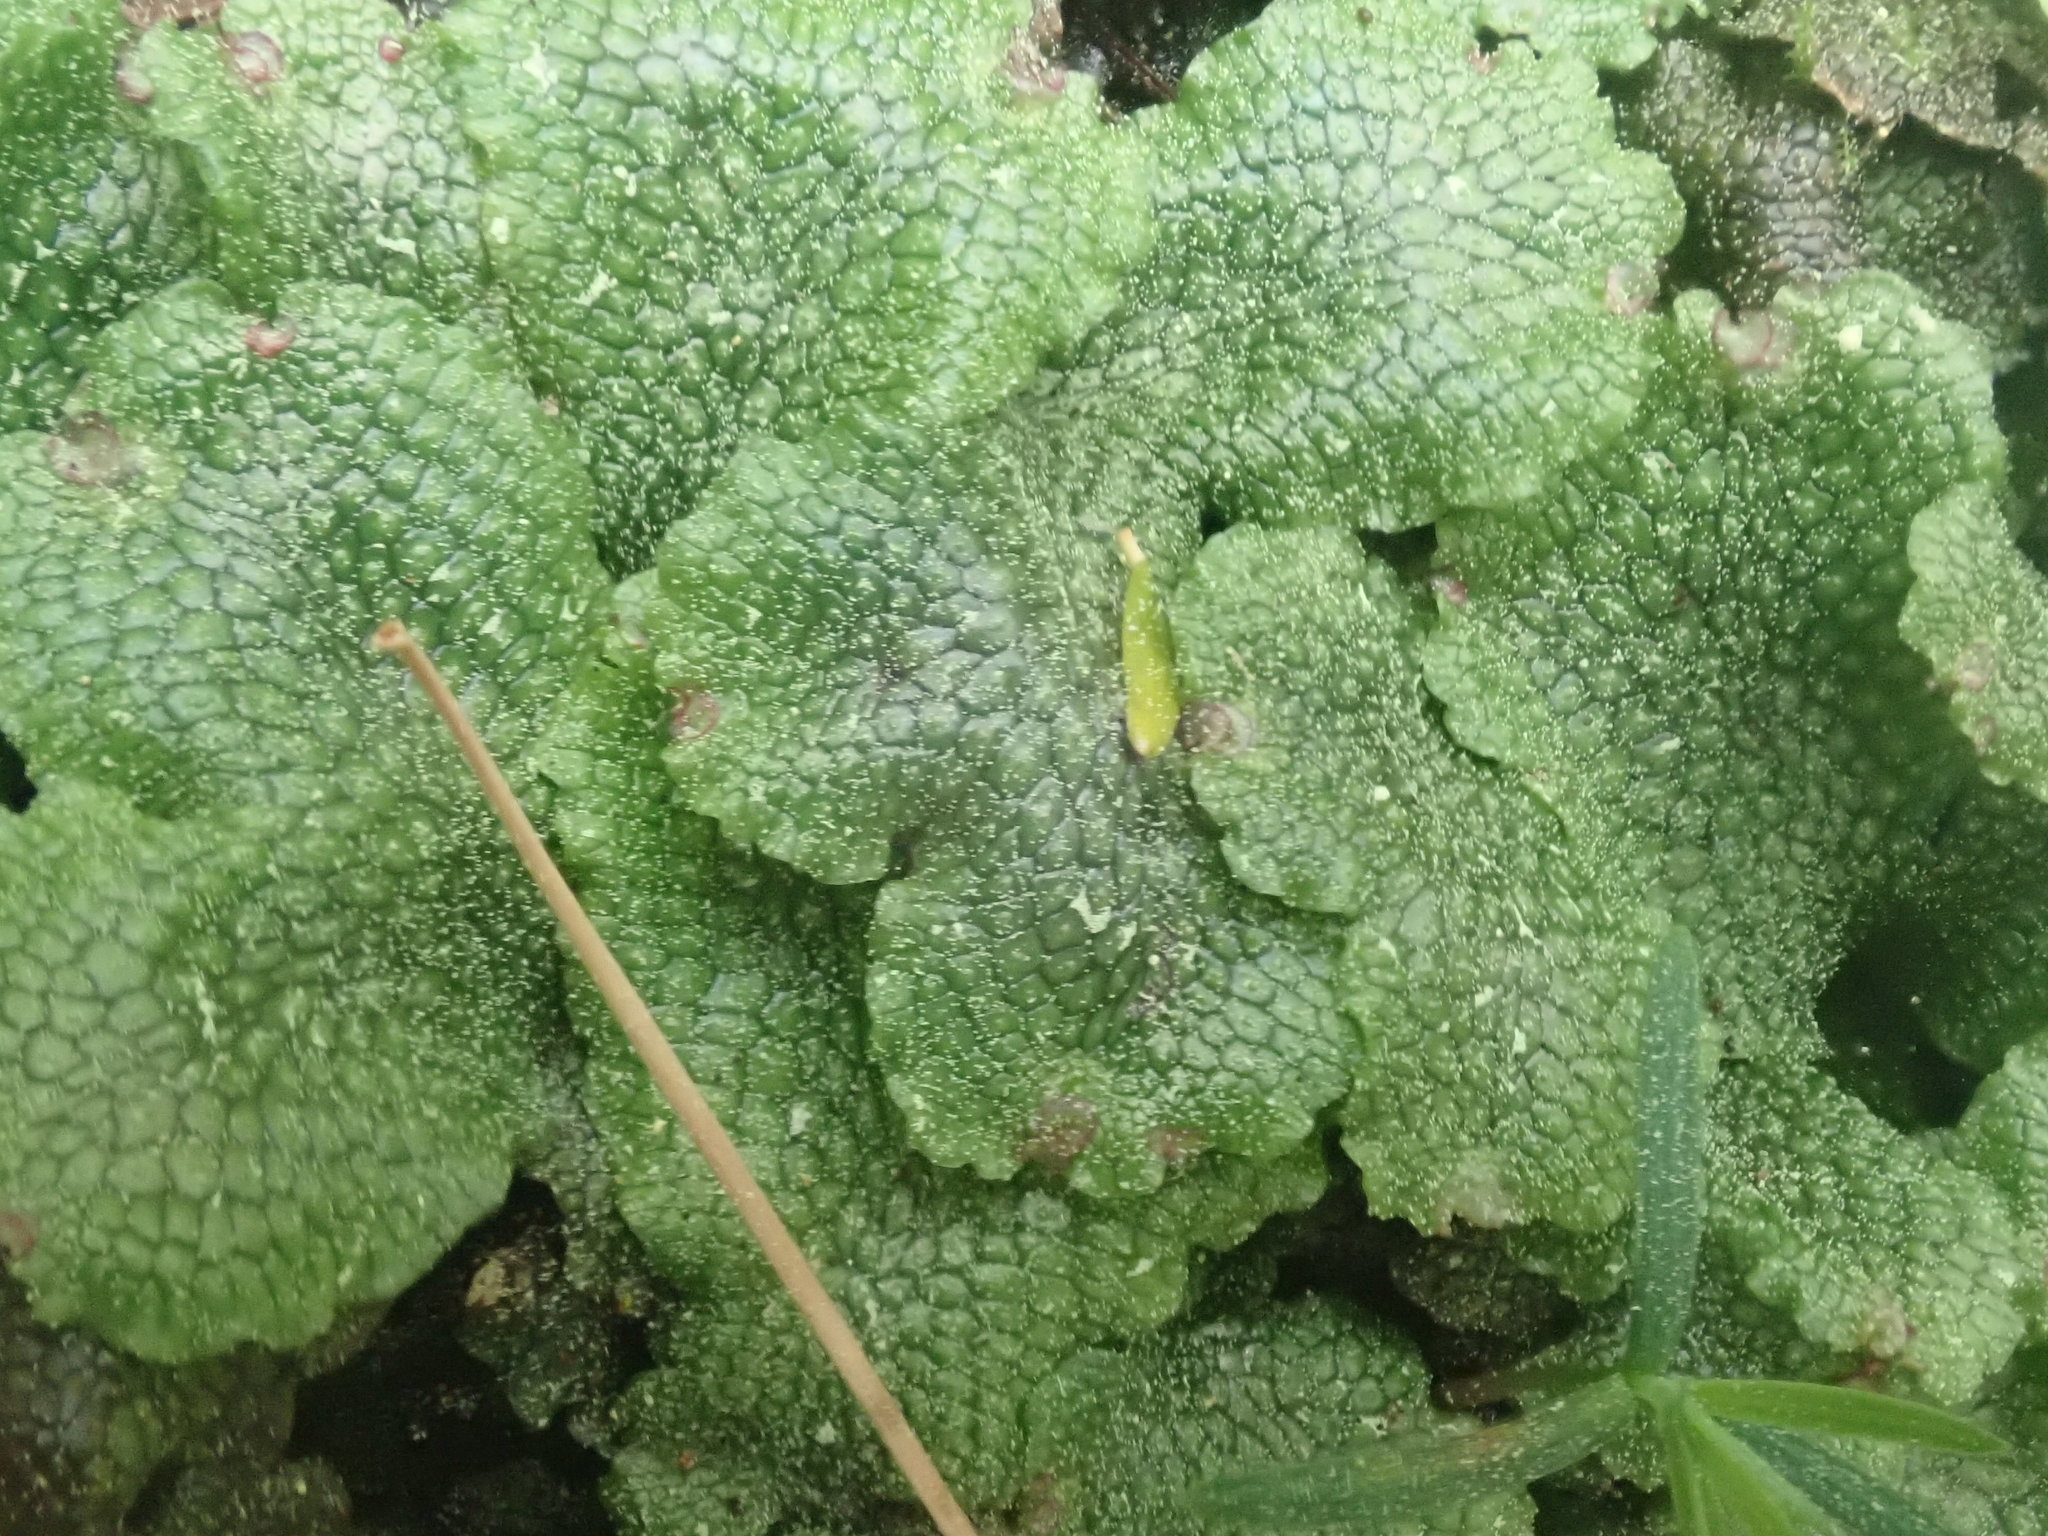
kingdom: Plantae
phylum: Marchantiophyta
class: Marchantiopsida
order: Marchantiales
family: Conocephalaceae
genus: Conocephalum
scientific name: Conocephalum salebrosum
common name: Cat-tongue liverwort
